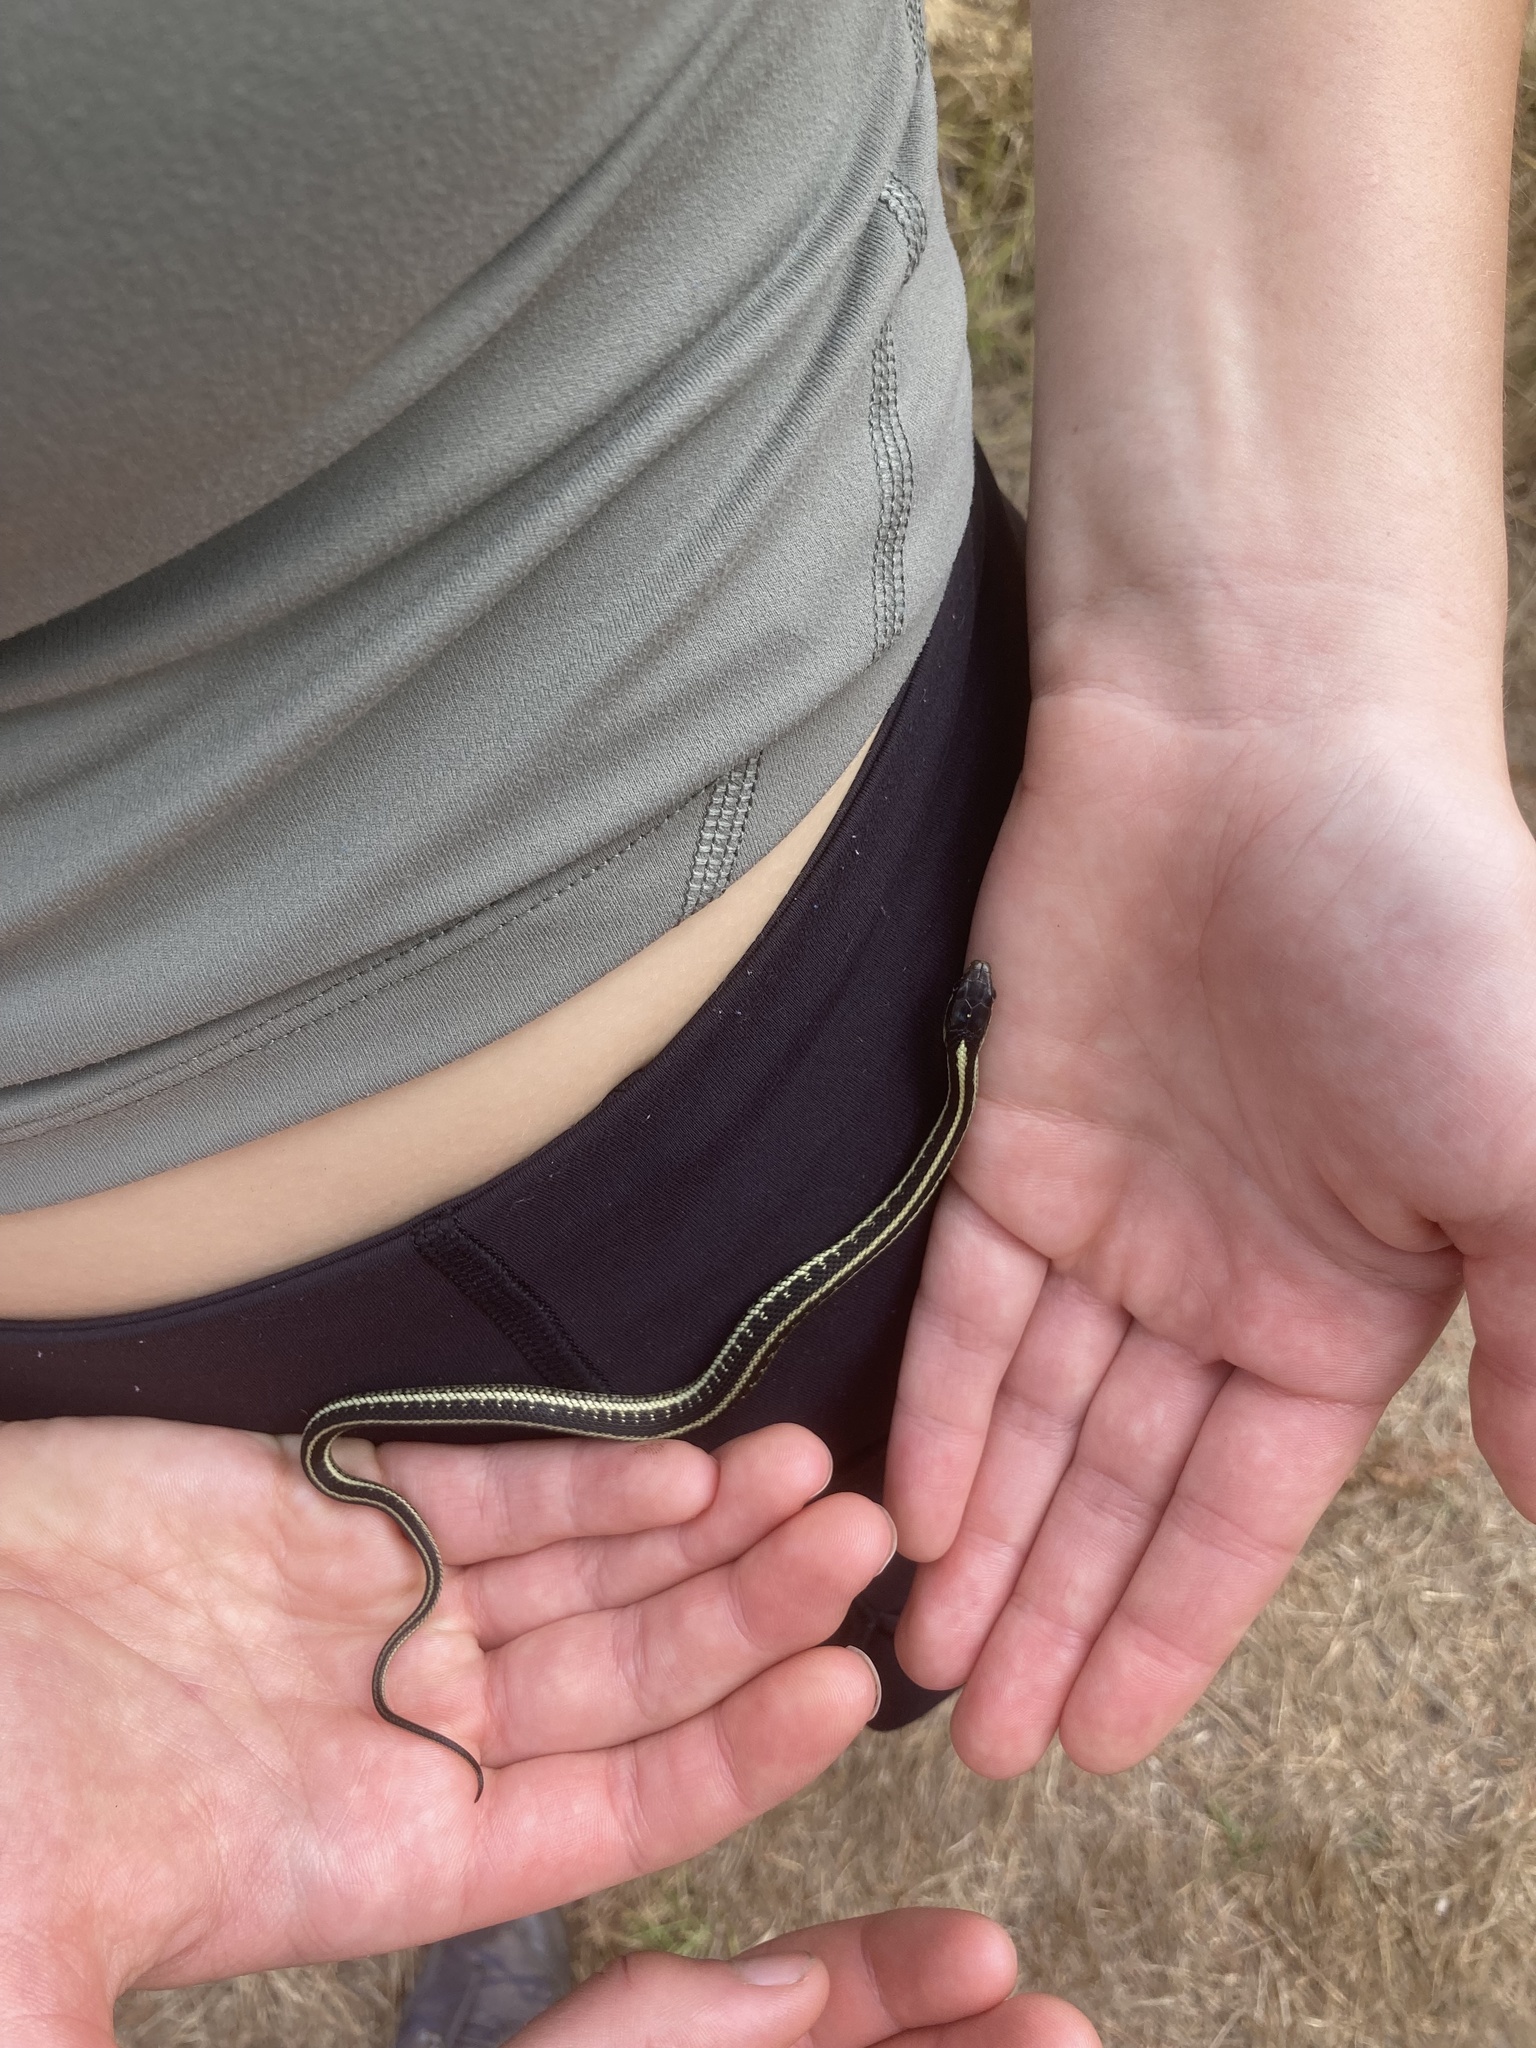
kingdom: Animalia
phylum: Chordata
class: Squamata
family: Colubridae
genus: Thamnophis
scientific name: Thamnophis sirtalis
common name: Common garter snake
